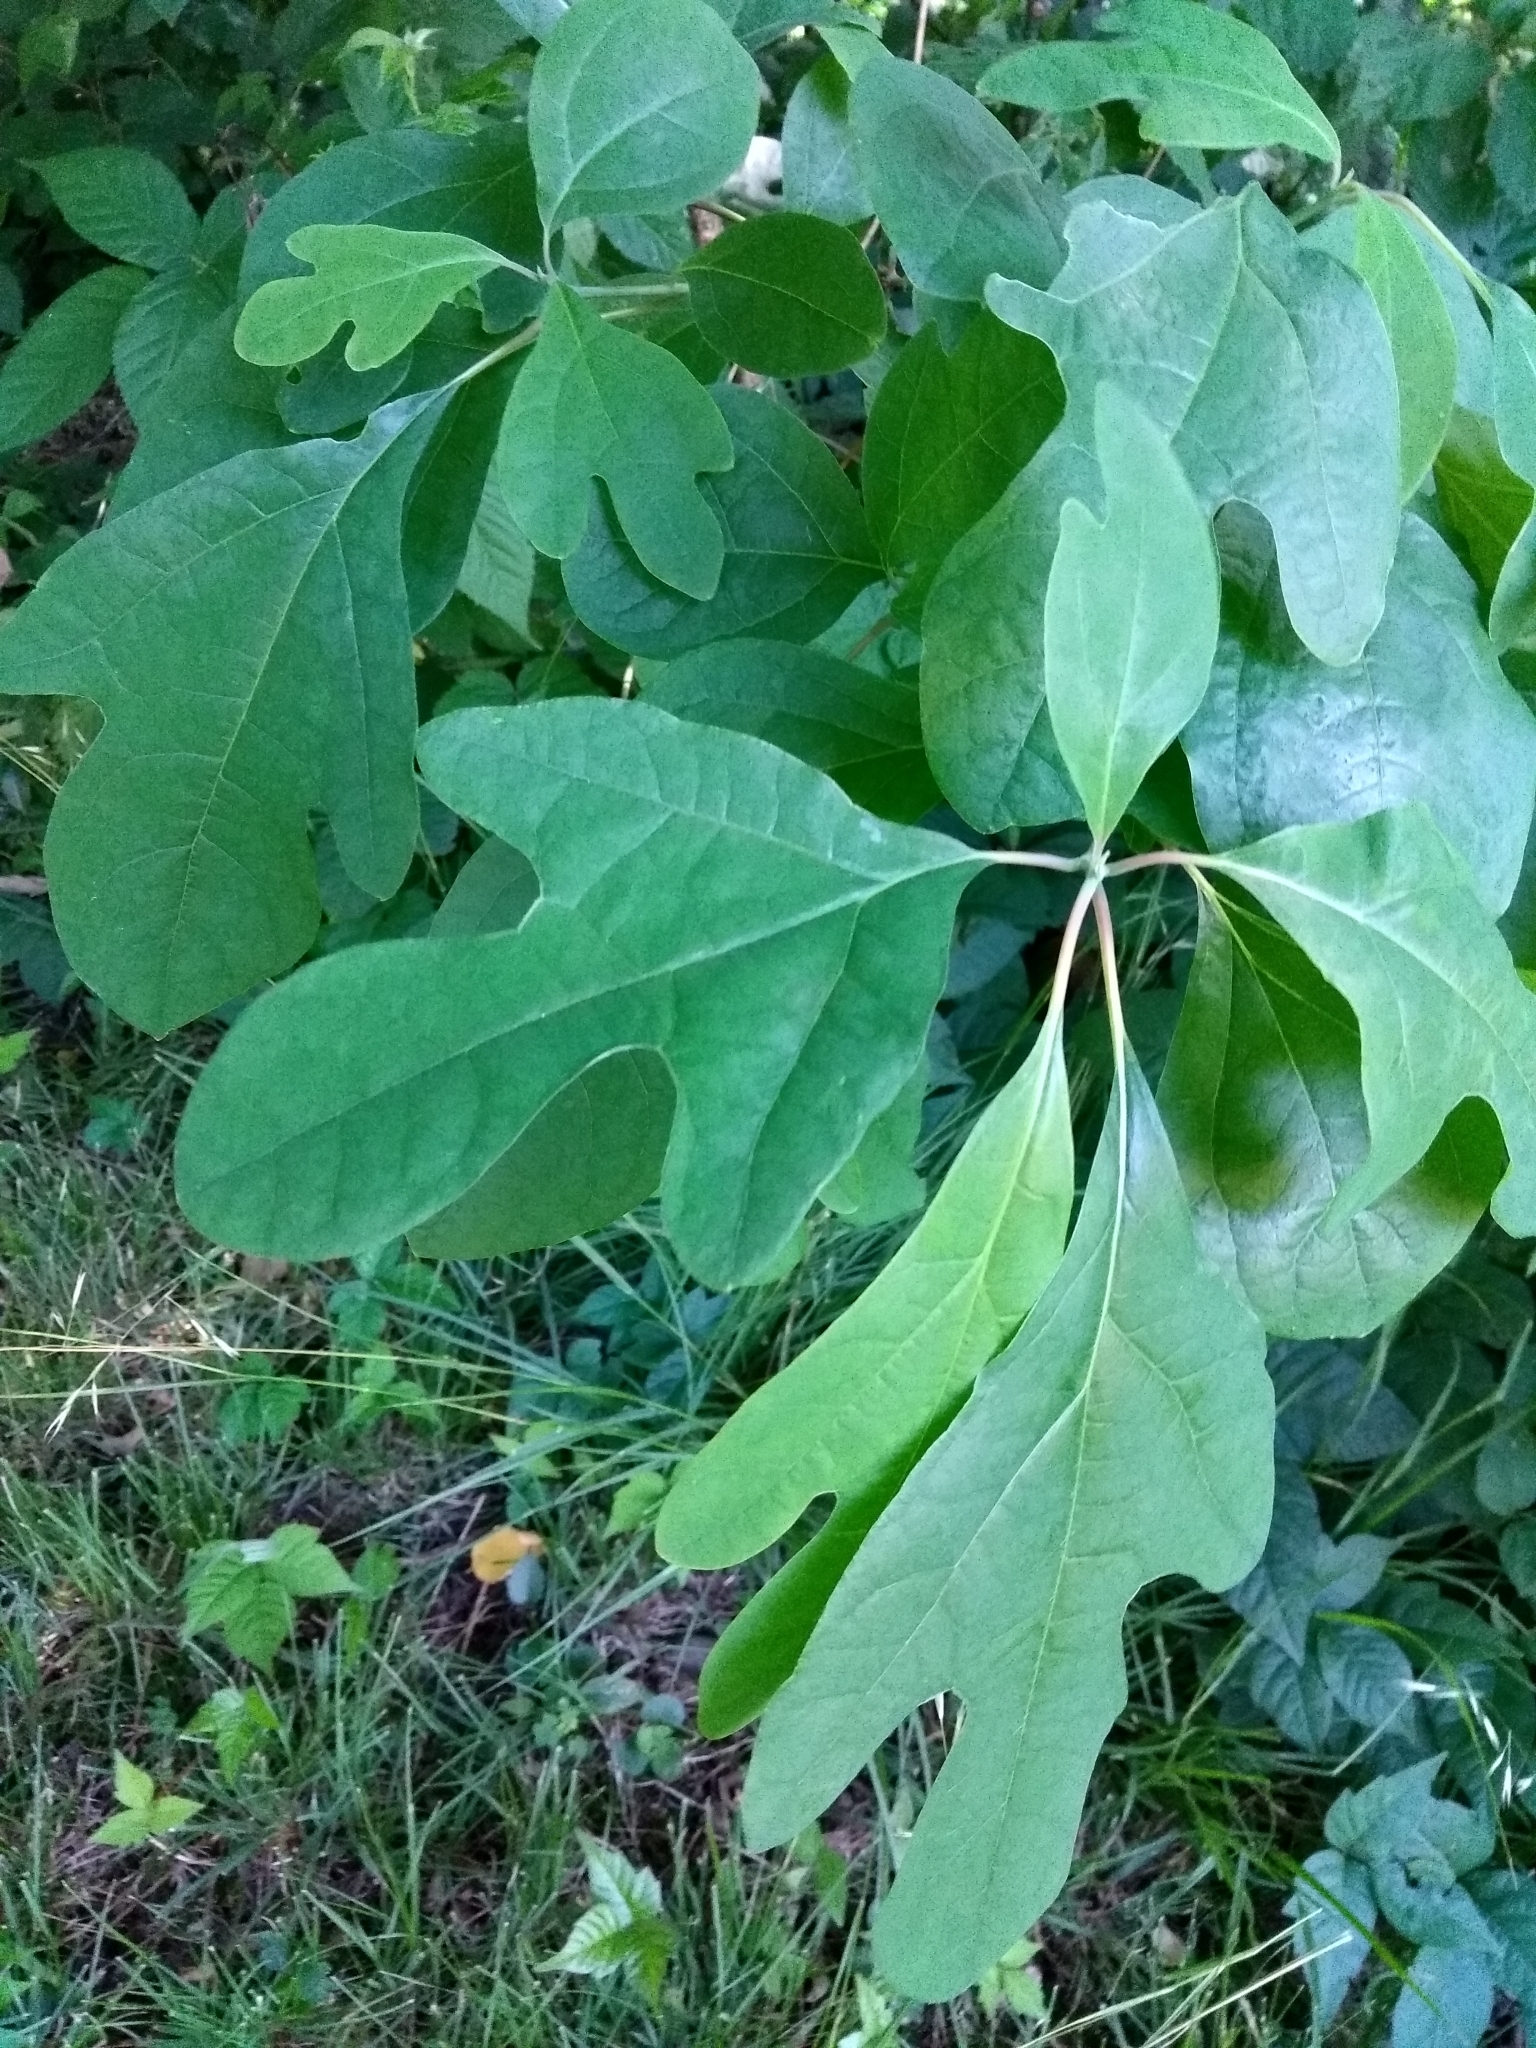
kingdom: Plantae
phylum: Tracheophyta
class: Magnoliopsida
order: Laurales
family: Lauraceae
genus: Sassafras
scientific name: Sassafras albidum
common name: Sassafras
